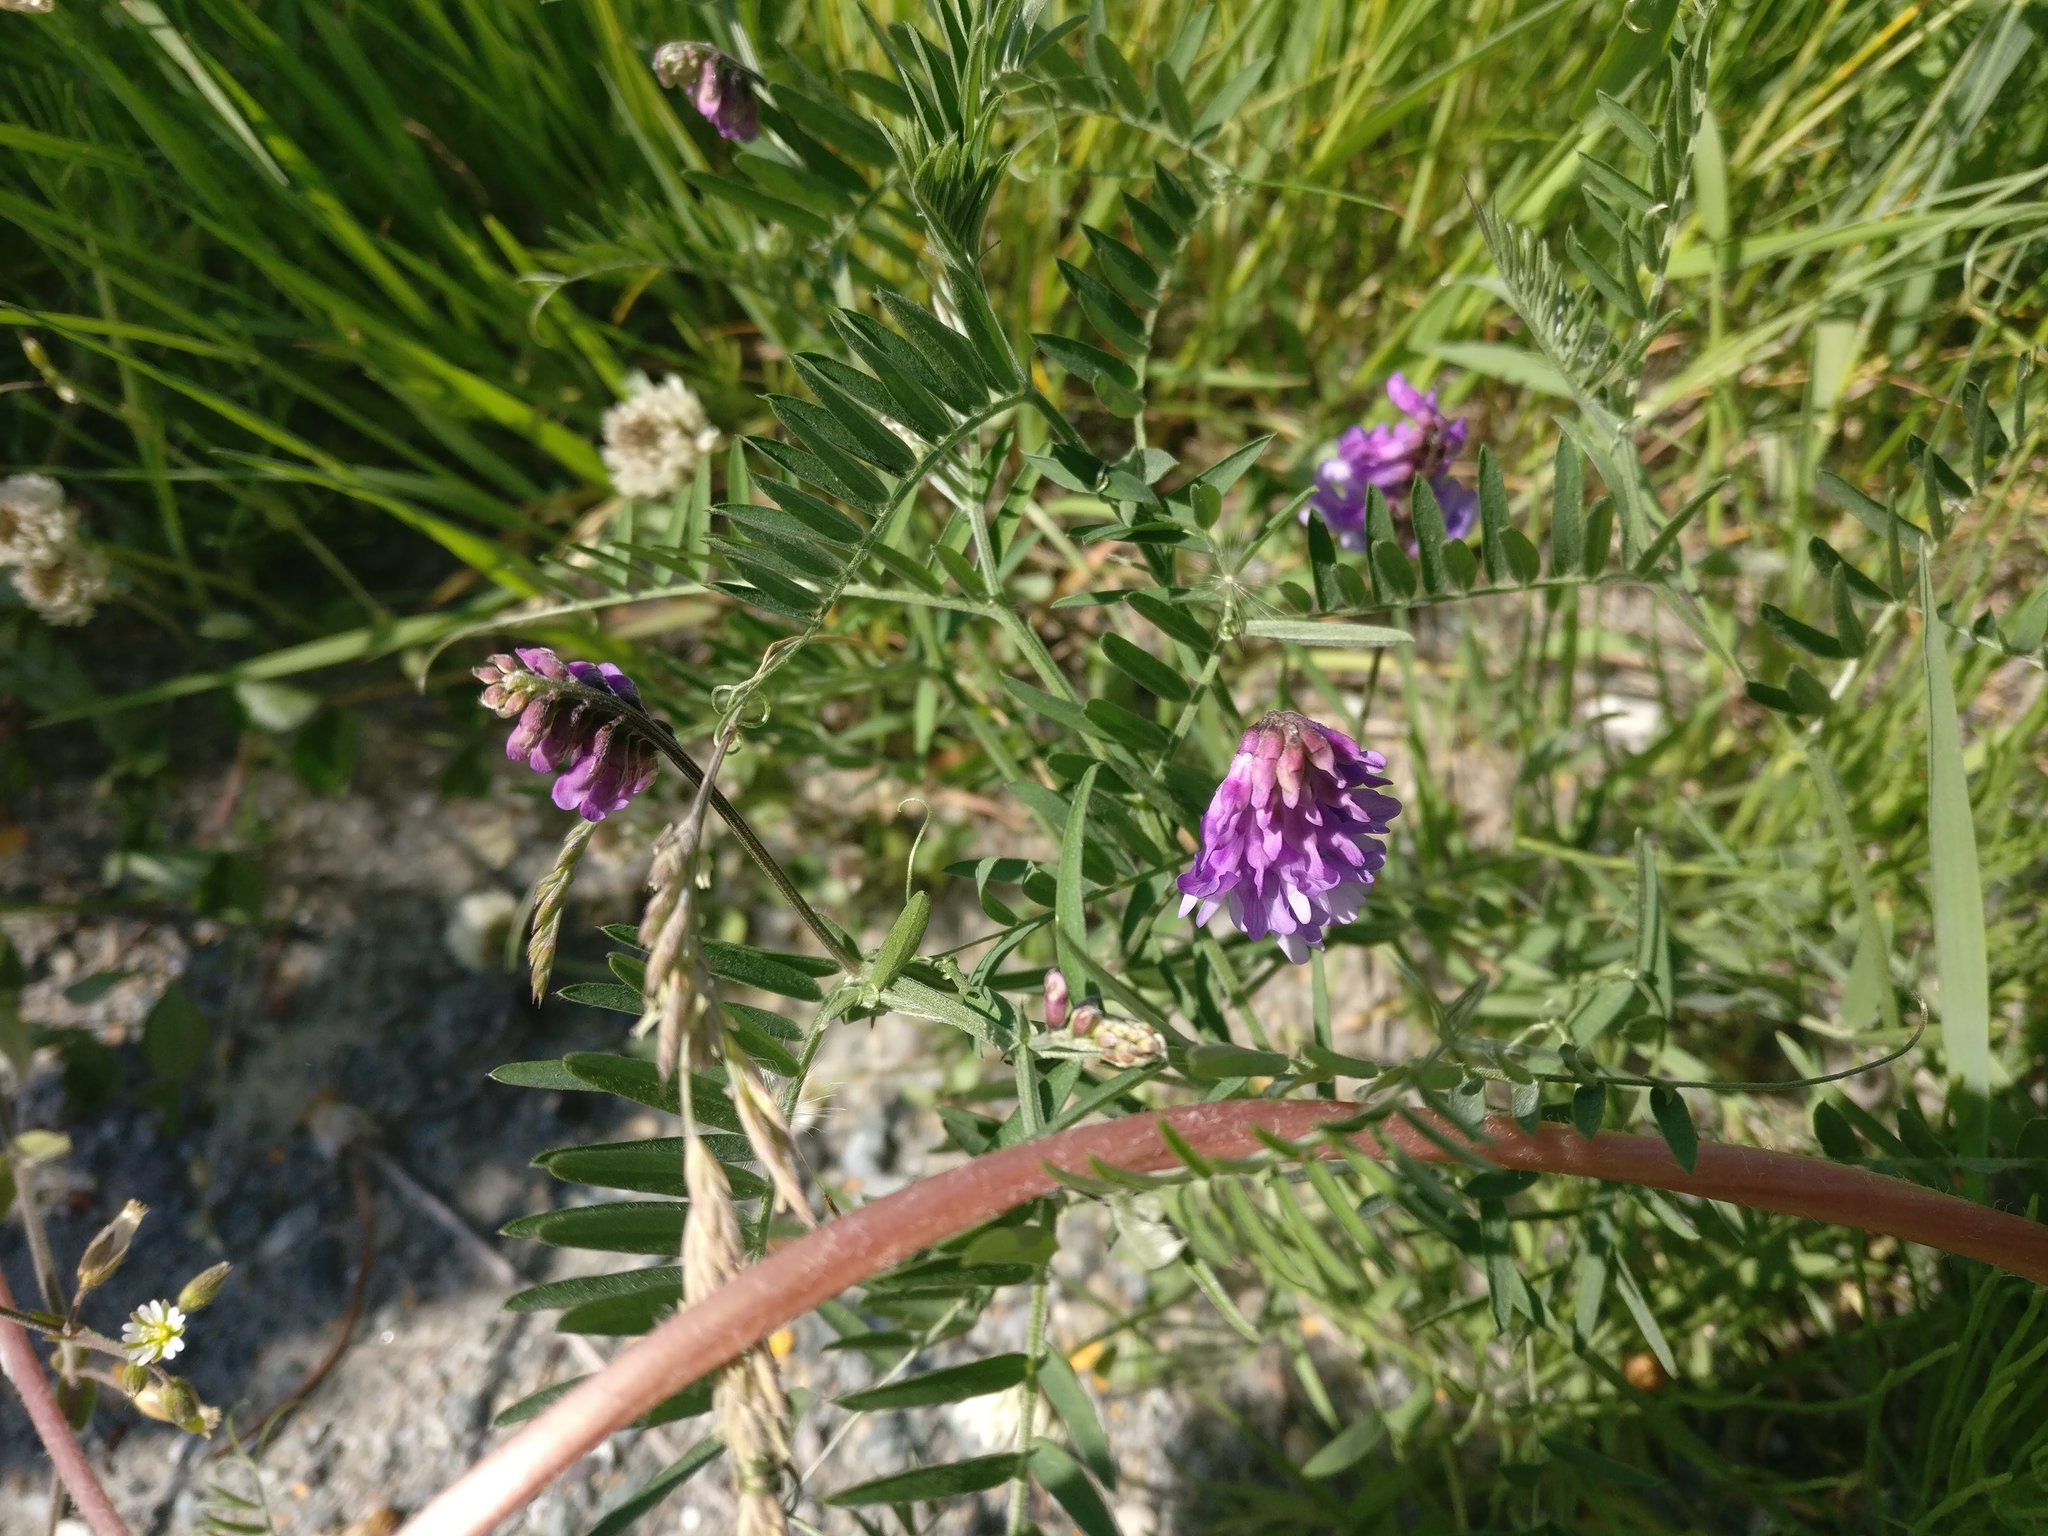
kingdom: Plantae
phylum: Tracheophyta
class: Magnoliopsida
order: Fabales
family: Fabaceae
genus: Vicia
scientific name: Vicia cracca
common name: Bird vetch
